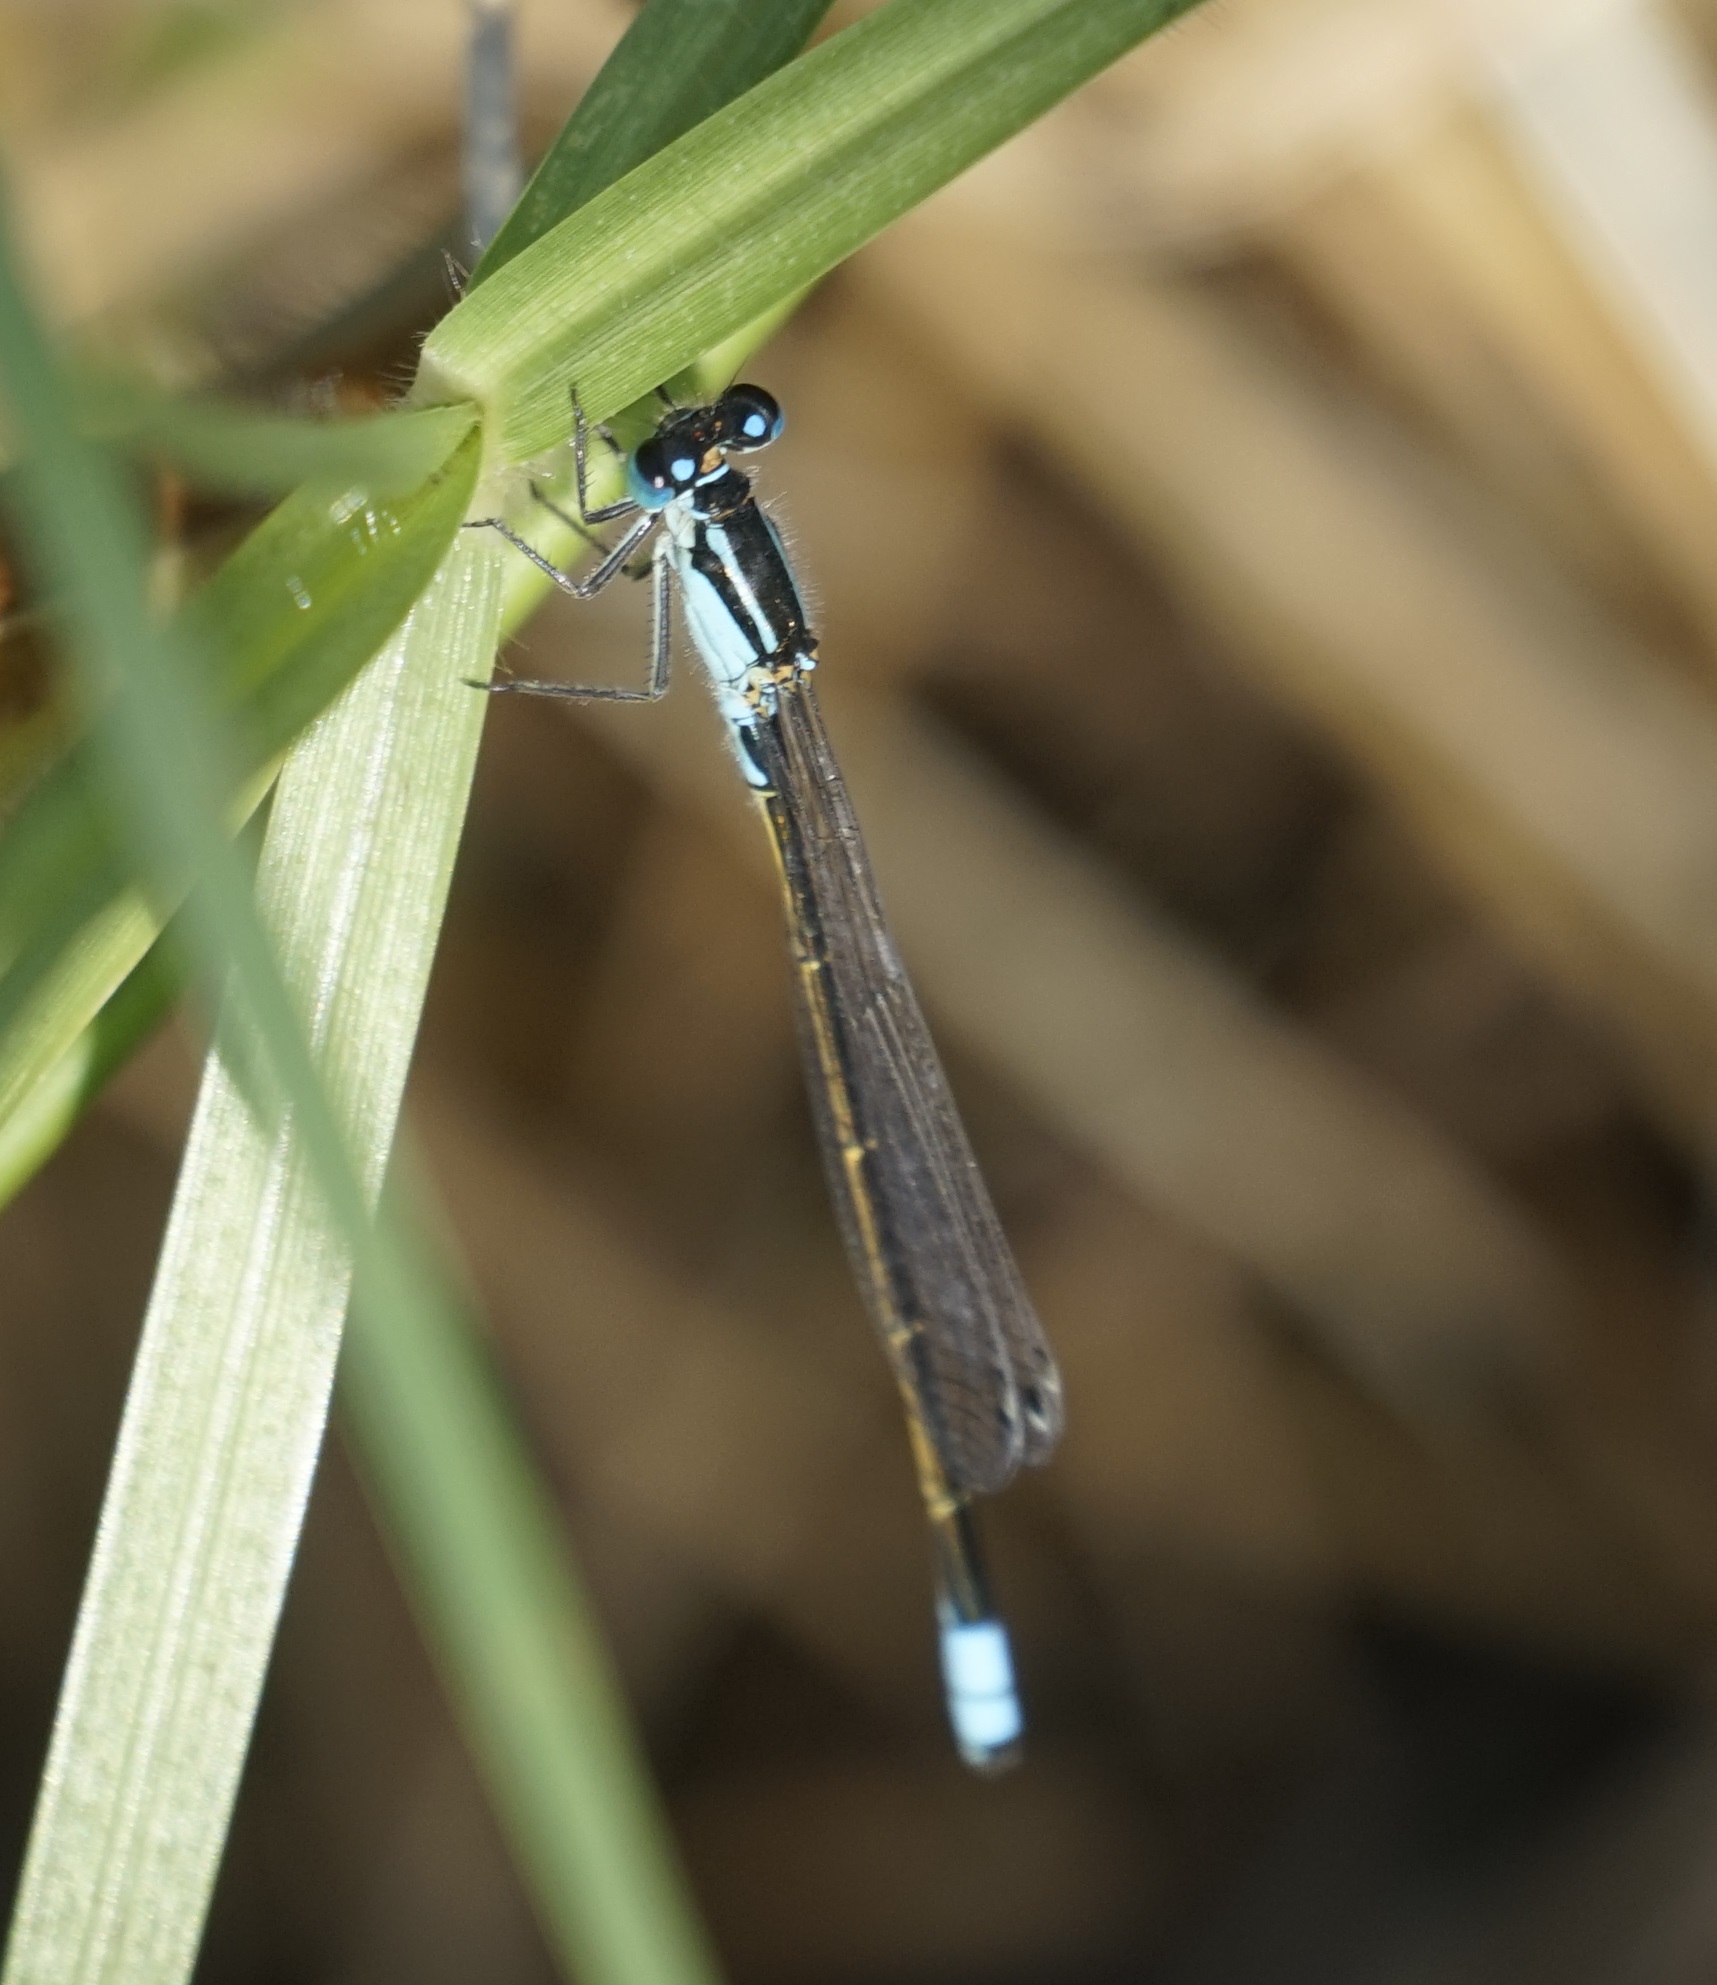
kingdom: Animalia
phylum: Arthropoda
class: Insecta
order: Odonata
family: Coenagrionidae
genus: Ischnura
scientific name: Ischnura heterosticta
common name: Common bluetail
